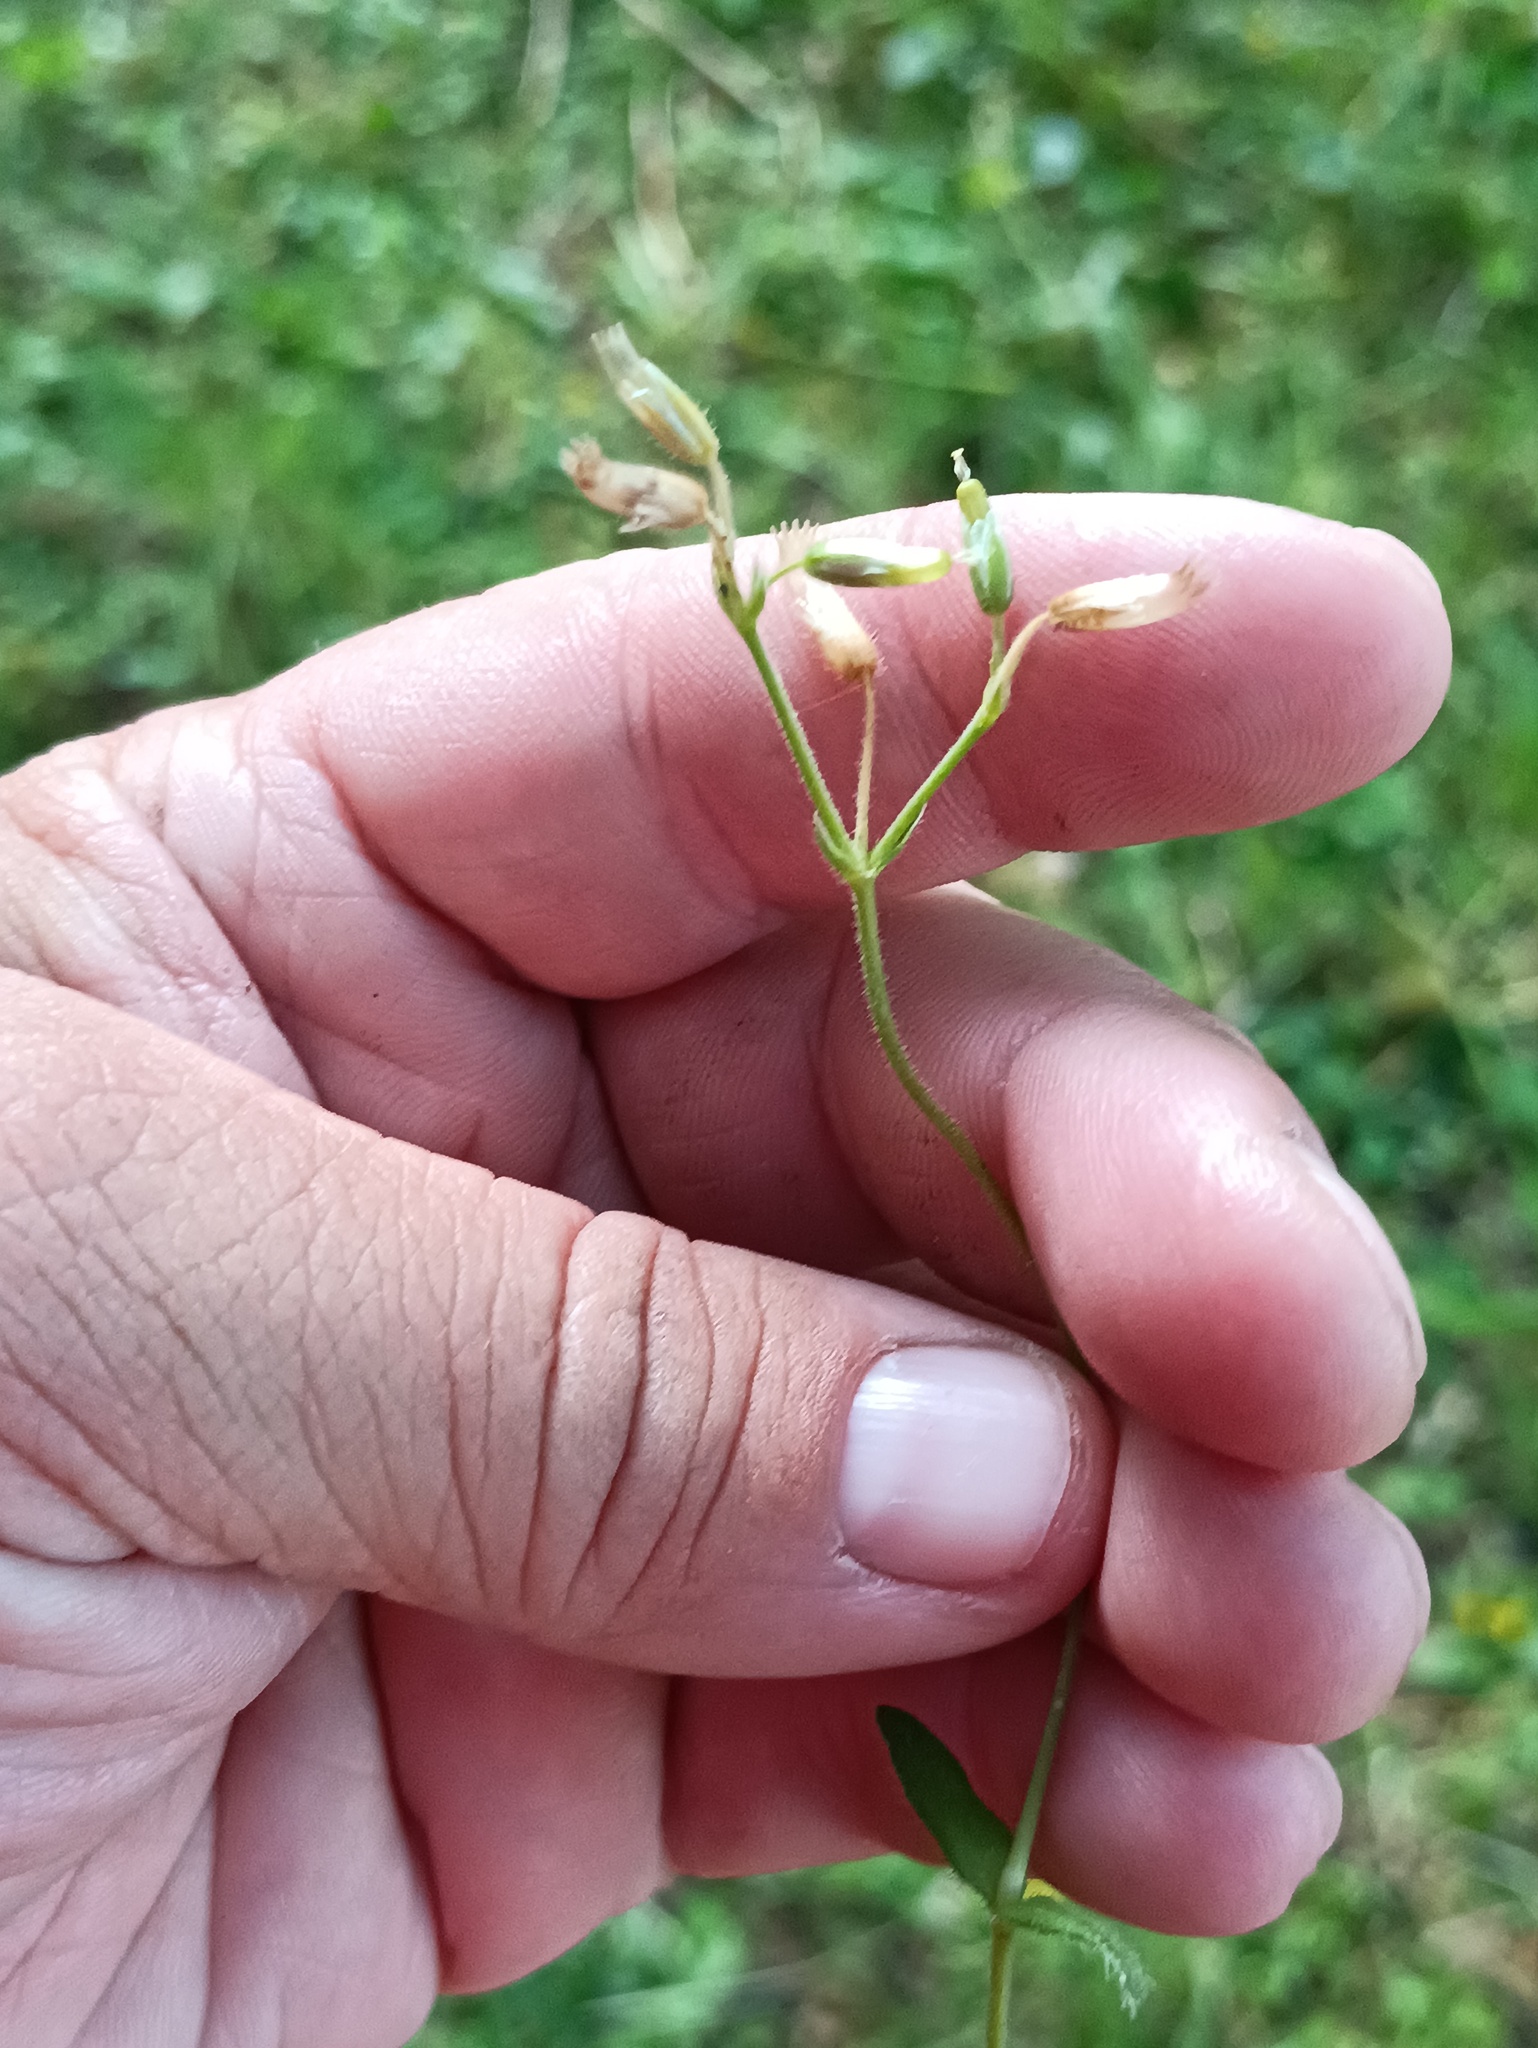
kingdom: Plantae
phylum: Tracheophyta
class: Magnoliopsida
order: Caryophyllales
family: Caryophyllaceae
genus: Cerastium
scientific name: Cerastium holosteoides
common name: Big chickweed
